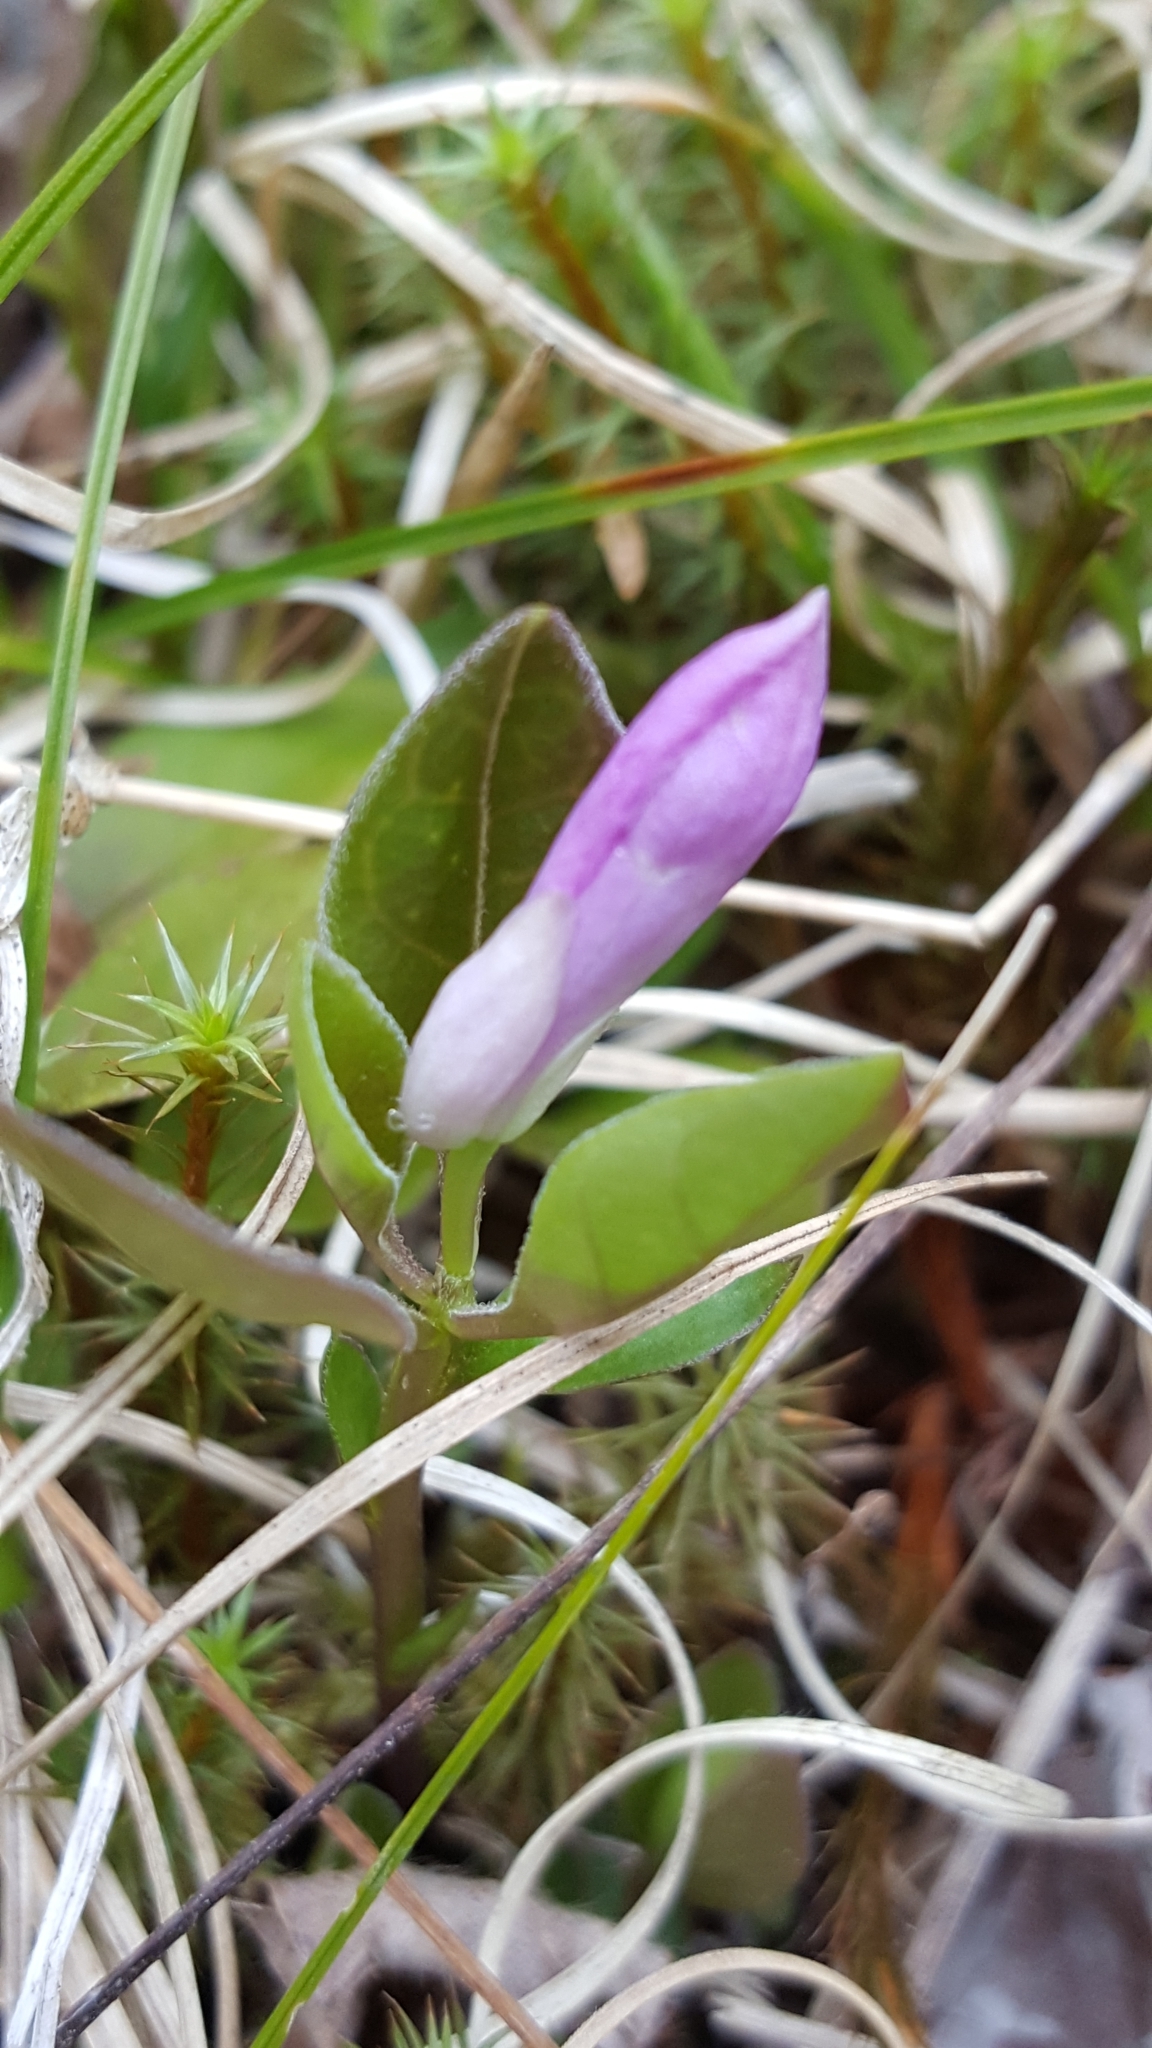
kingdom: Plantae
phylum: Tracheophyta
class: Magnoliopsida
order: Fabales
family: Polygalaceae
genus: Polygaloides
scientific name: Polygaloides paucifolia
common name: Bird-on-the-wing
